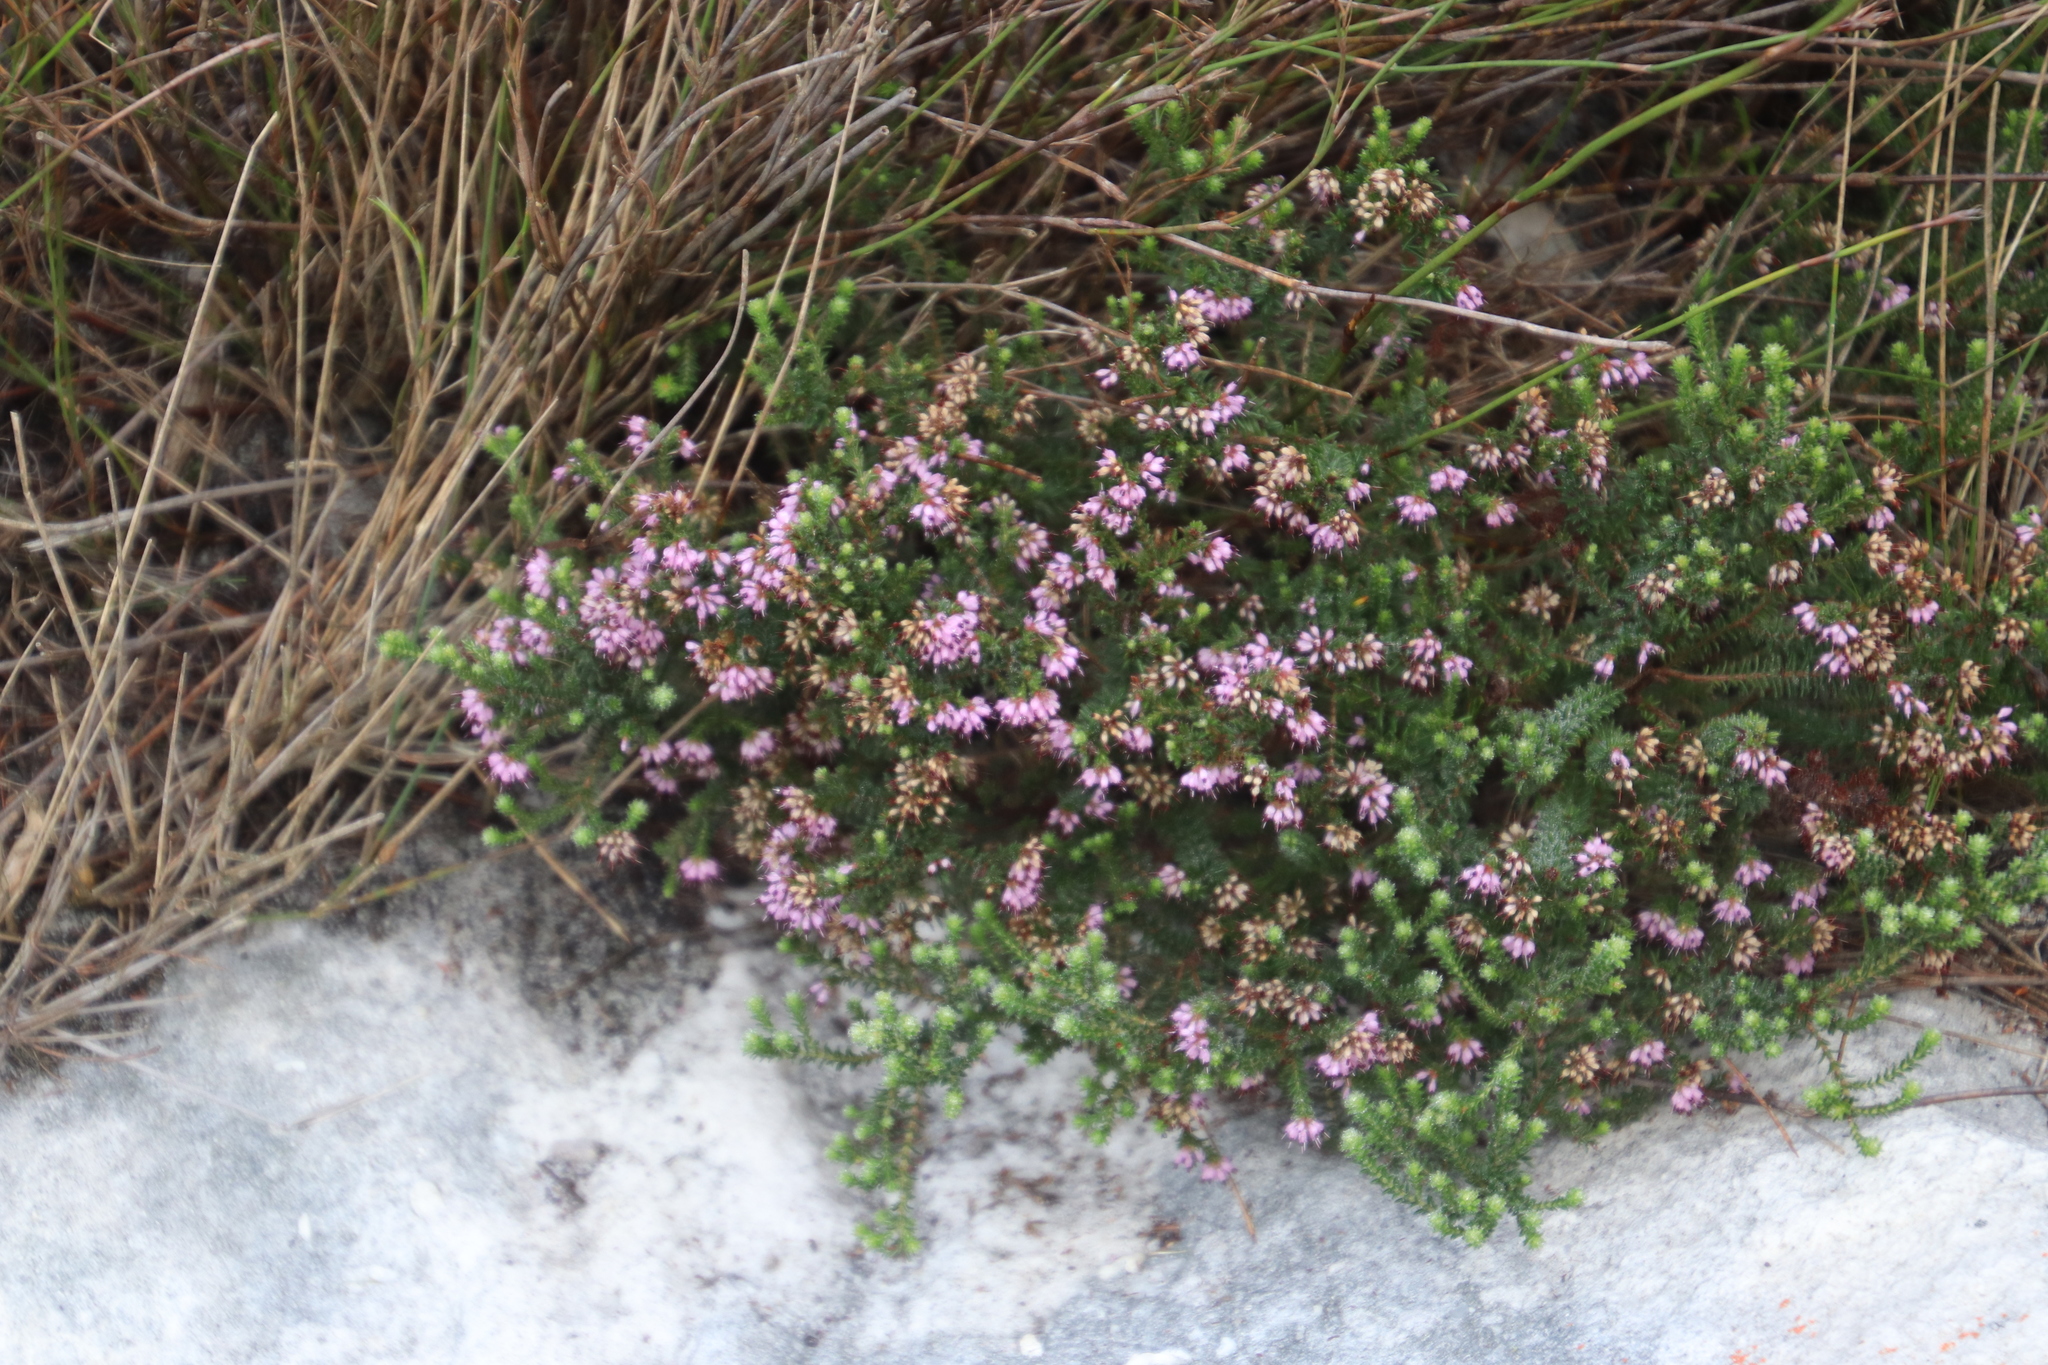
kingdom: Plantae
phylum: Tracheophyta
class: Magnoliopsida
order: Ericales
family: Ericaceae
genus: Erica
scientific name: Erica ericoides
